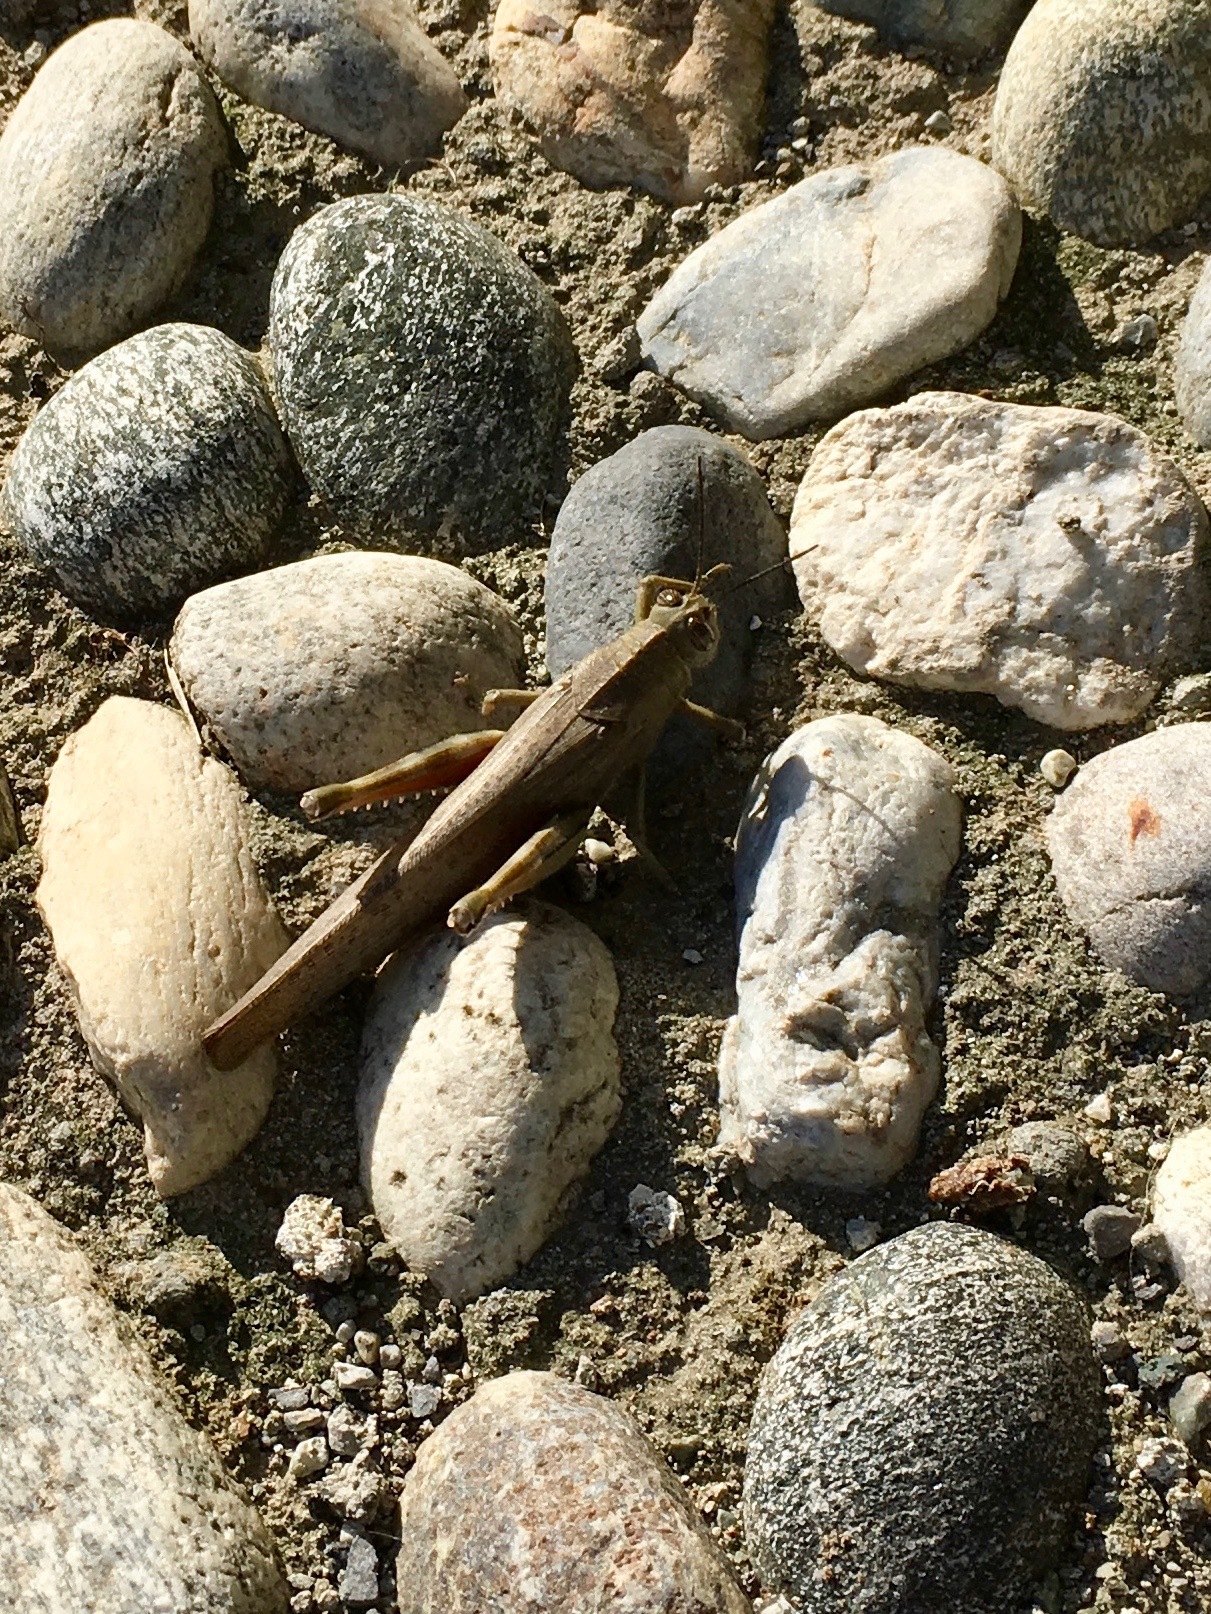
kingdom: Animalia
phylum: Arthropoda
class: Insecta
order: Orthoptera
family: Acrididae
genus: Anacridium
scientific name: Anacridium aegyptium
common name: Egyptian grasshopper
